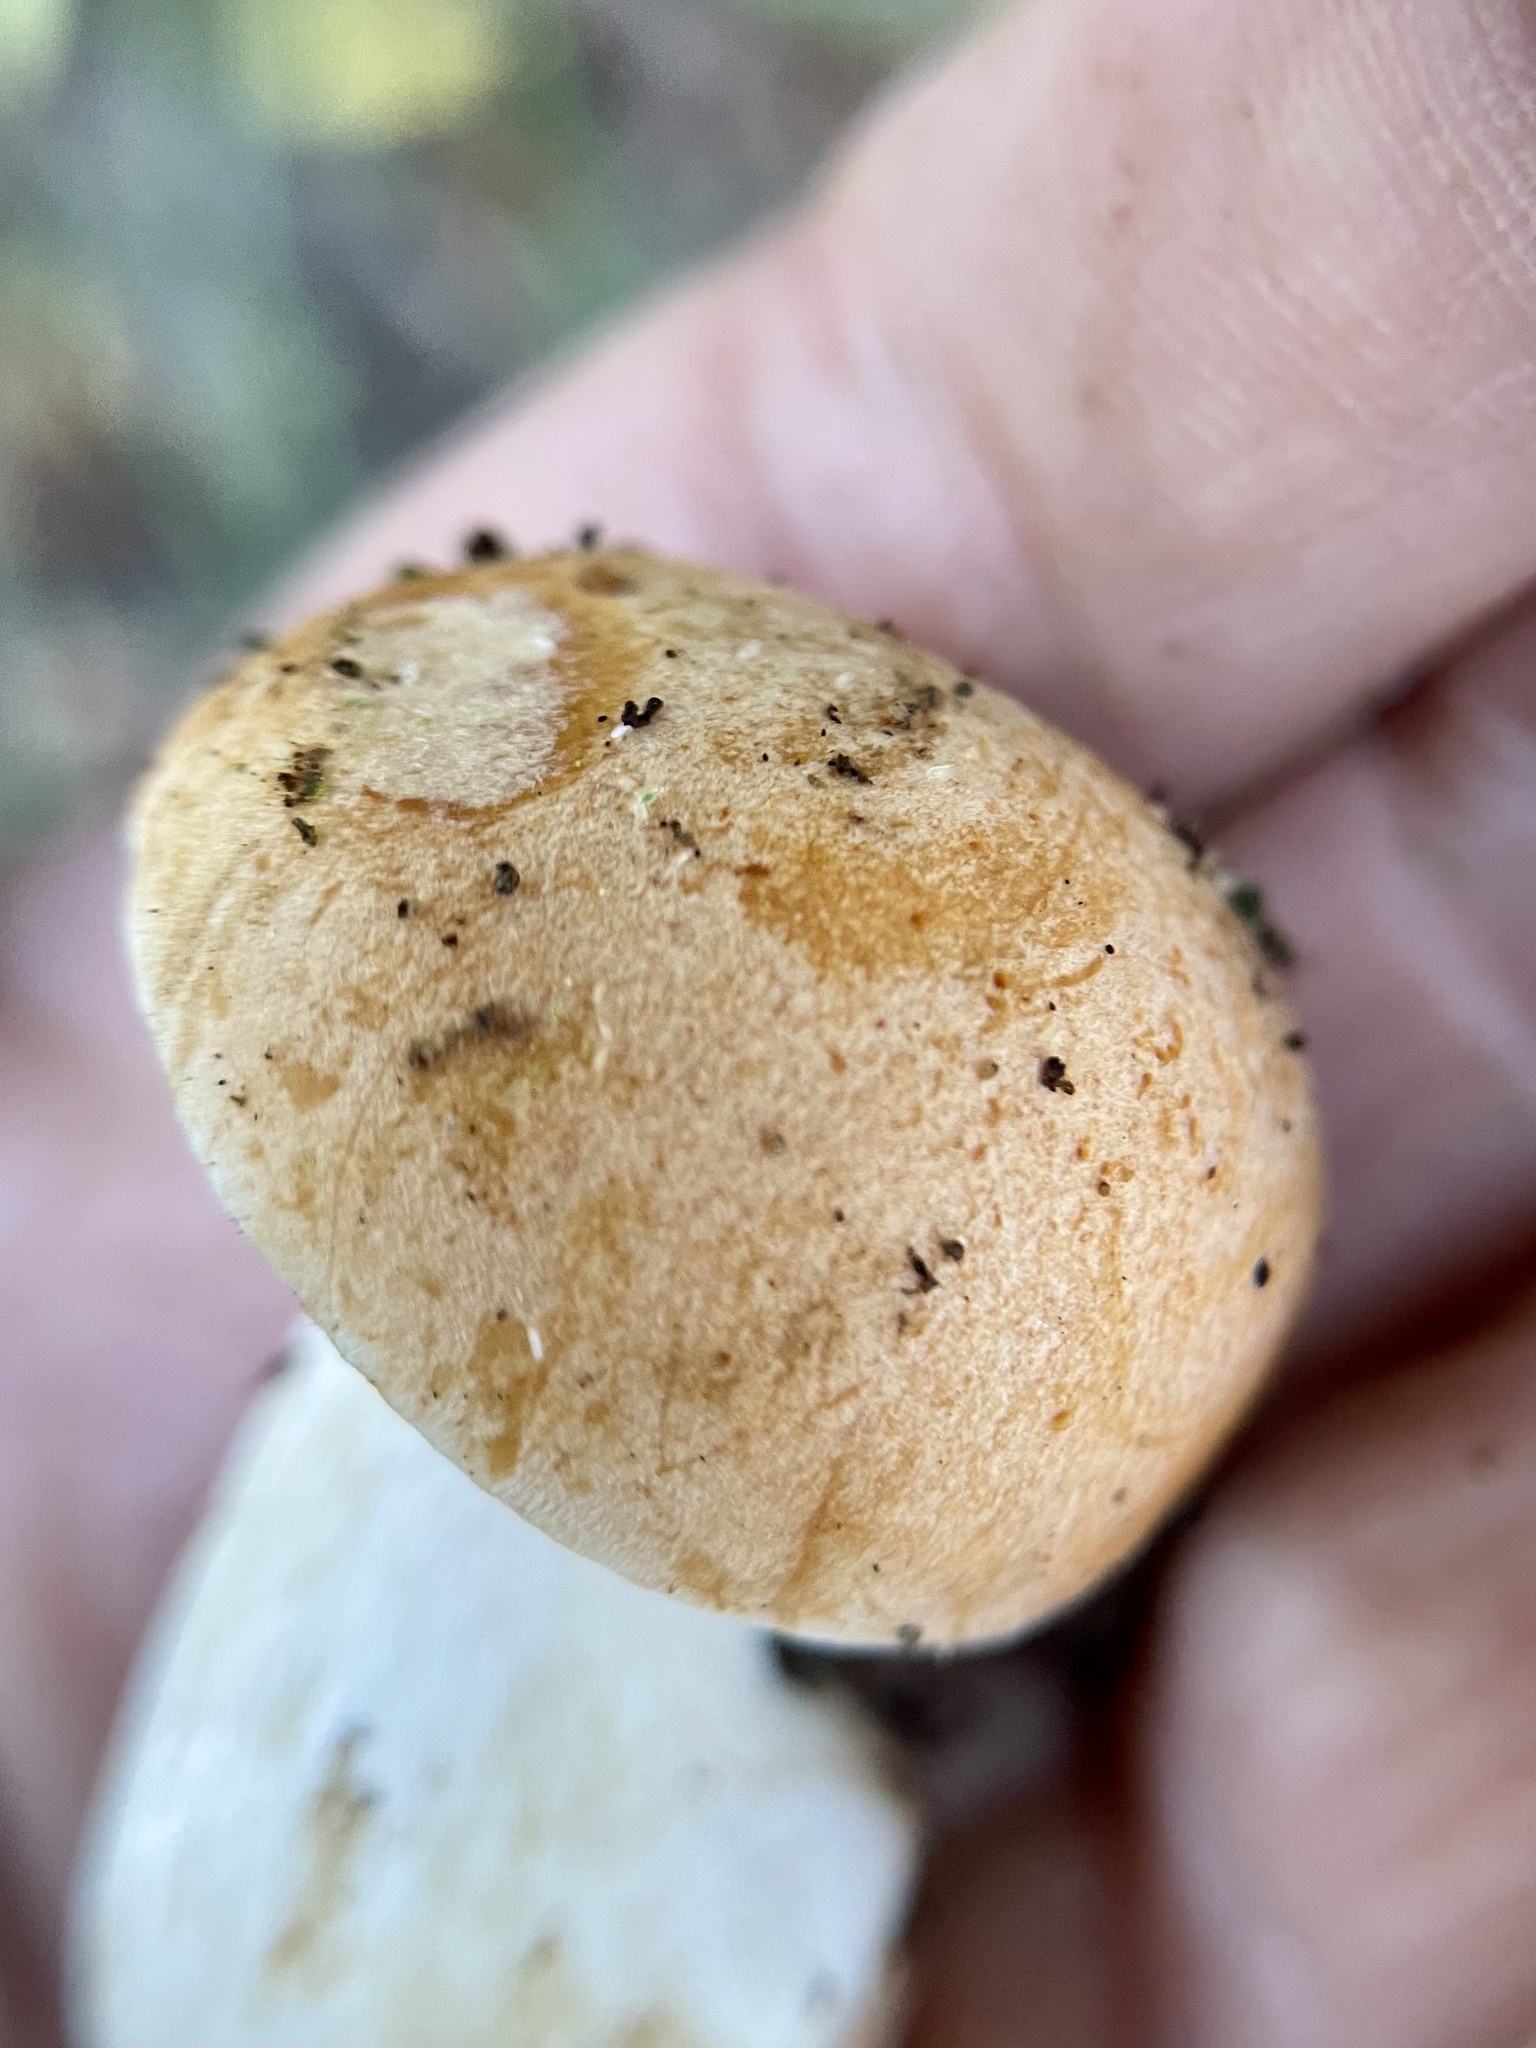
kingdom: Fungi
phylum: Basidiomycota
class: Agaricomycetes
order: Agaricales
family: Hygrophoraceae
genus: Cuphophyllus
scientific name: Cuphophyllus pratensis
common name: Meadow waxcap
